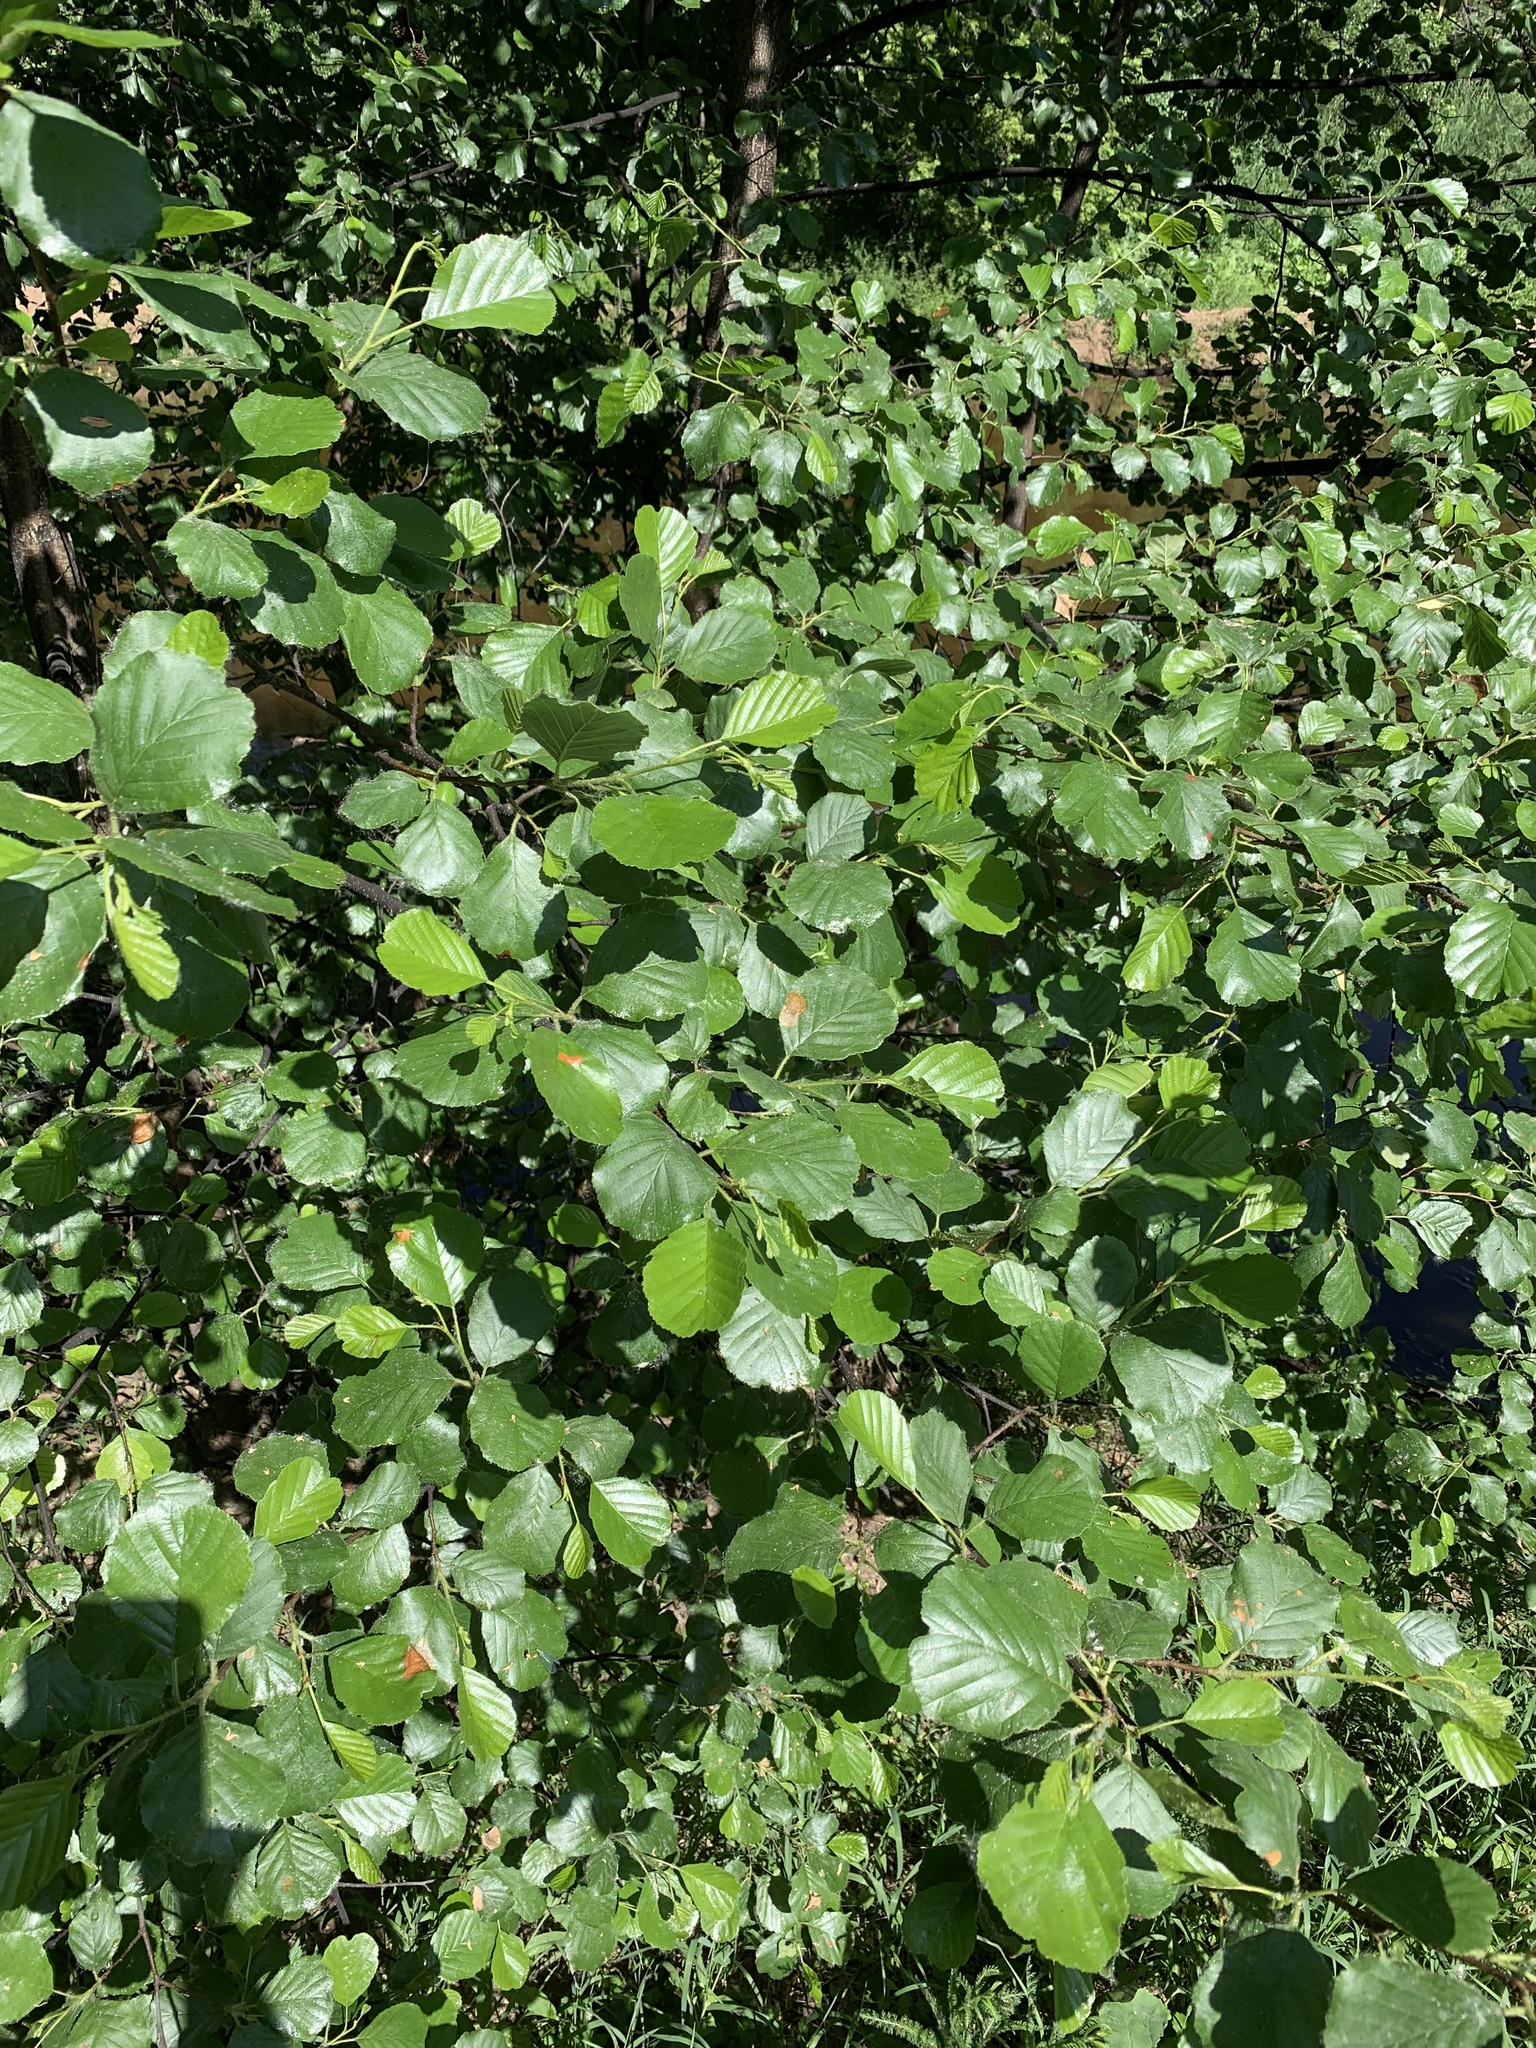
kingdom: Plantae
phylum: Tracheophyta
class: Magnoliopsida
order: Fagales
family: Betulaceae
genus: Alnus
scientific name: Alnus glutinosa
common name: Black alder
